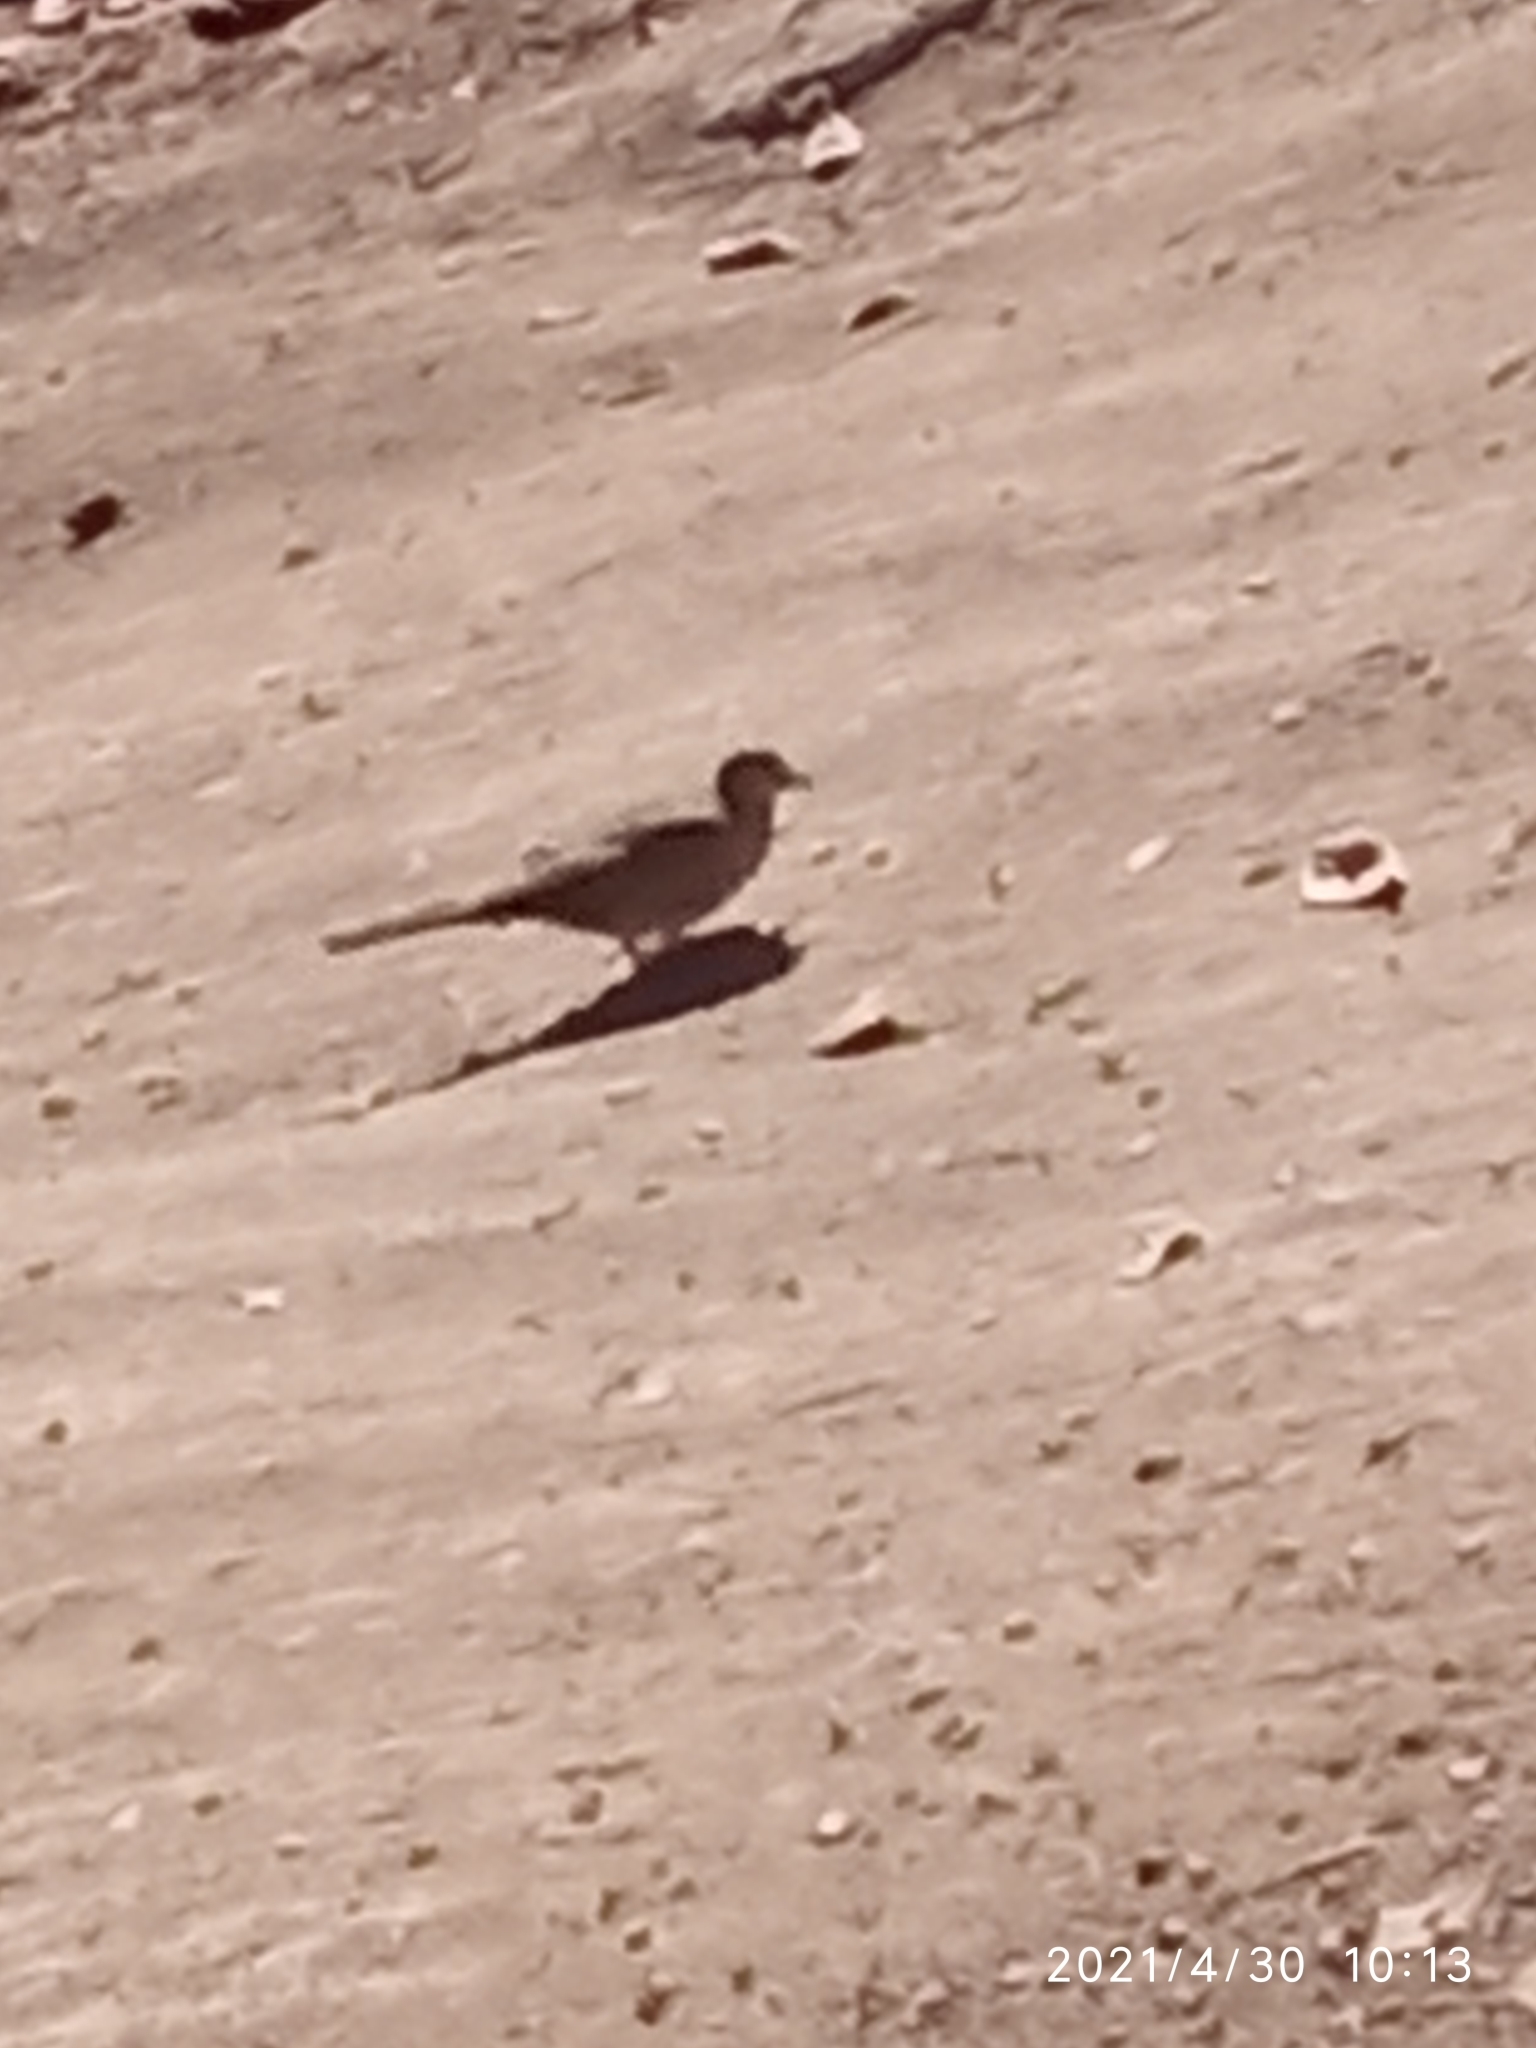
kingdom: Animalia
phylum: Chordata
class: Aves
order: Columbiformes
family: Columbidae
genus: Columbina
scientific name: Columbina inca
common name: Inca dove
